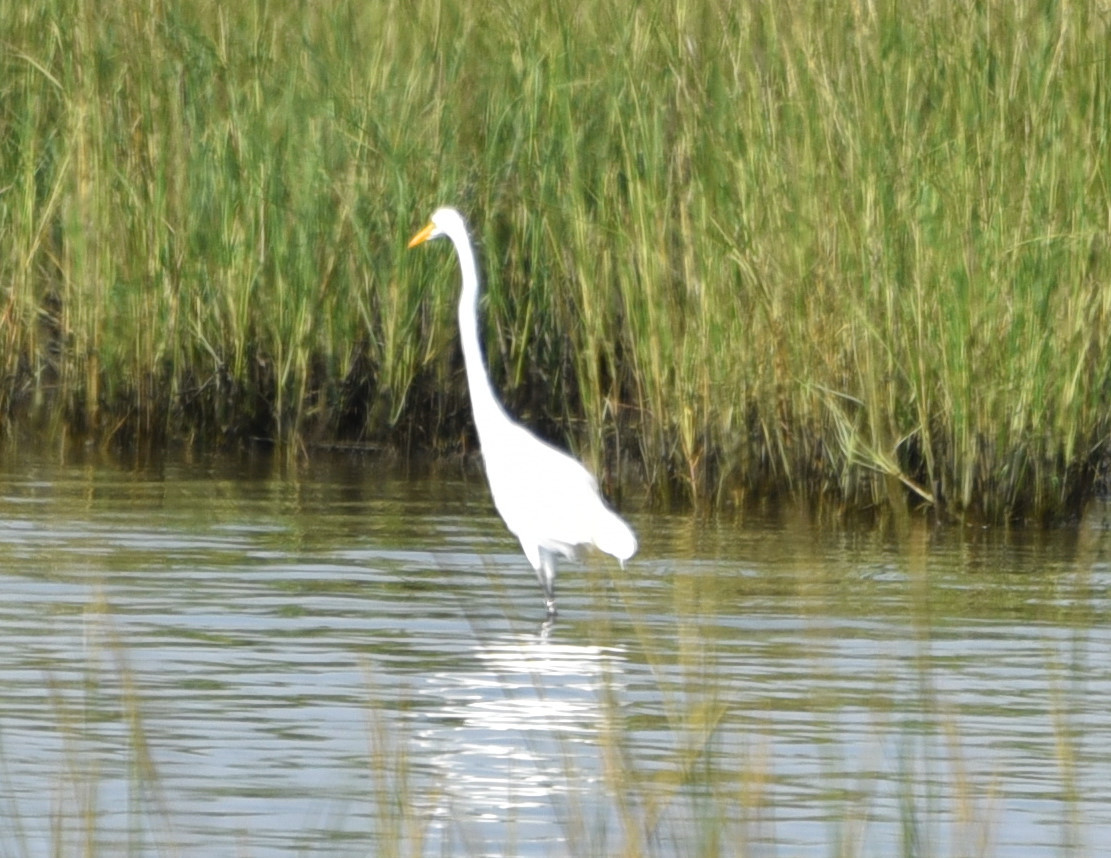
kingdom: Animalia
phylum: Chordata
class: Aves
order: Pelecaniformes
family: Ardeidae
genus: Ardea
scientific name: Ardea alba
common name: Great egret
